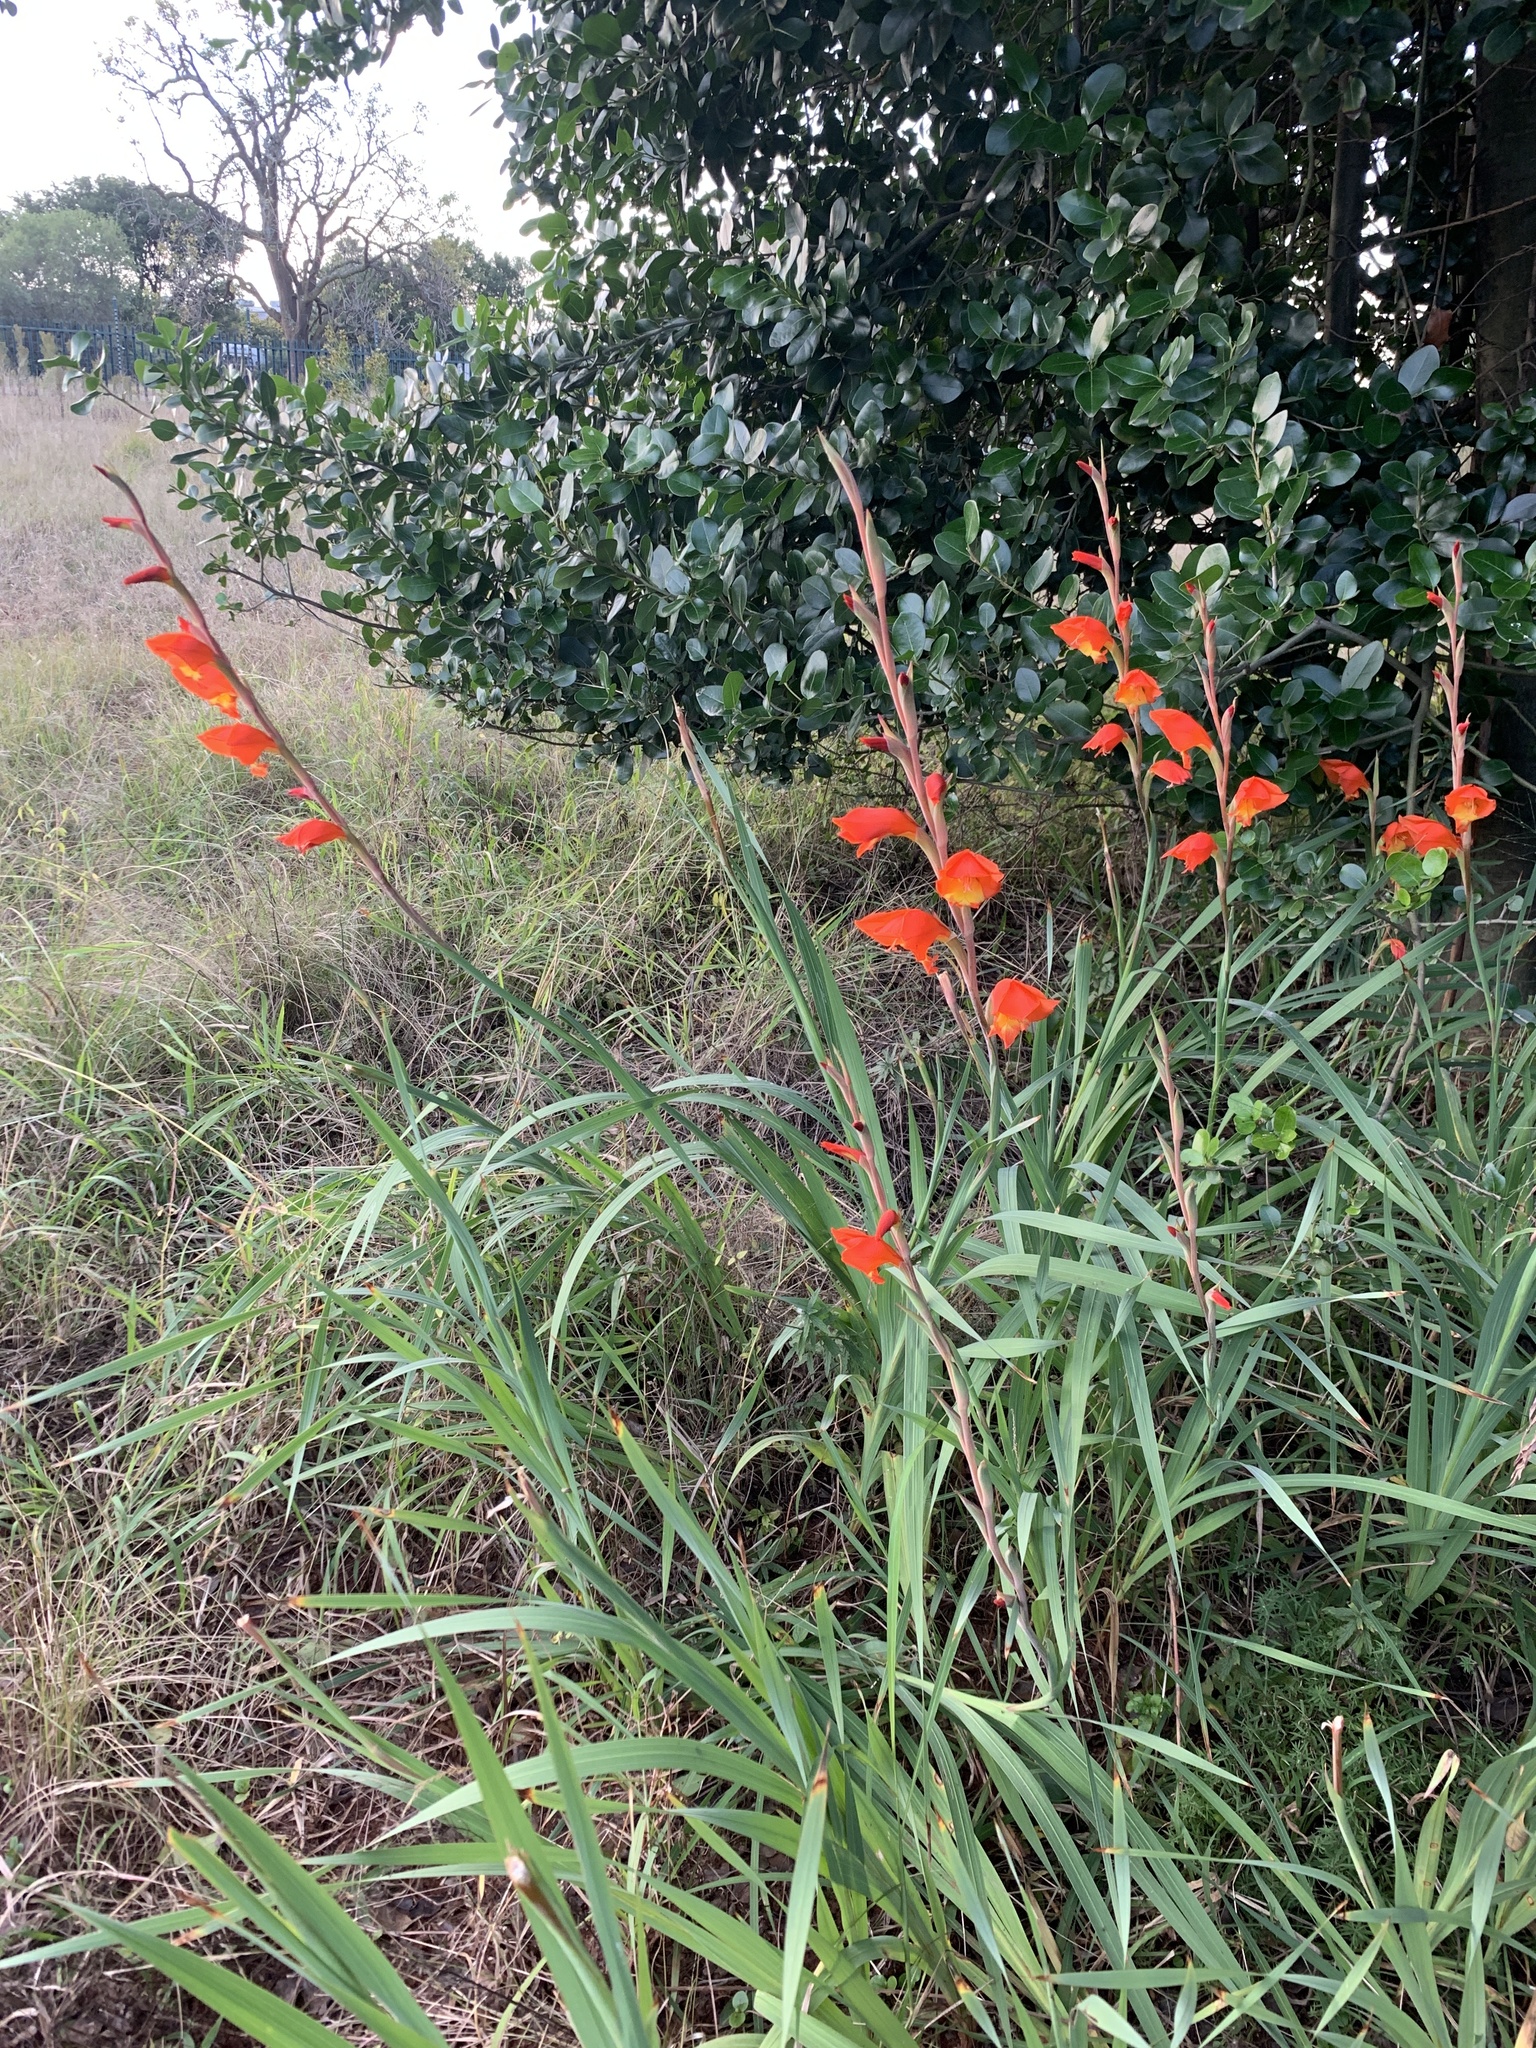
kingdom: Plantae
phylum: Tracheophyta
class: Liliopsida
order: Asparagales
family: Iridaceae
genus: Gladiolus
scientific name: Gladiolus dalenii
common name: Cornflag
